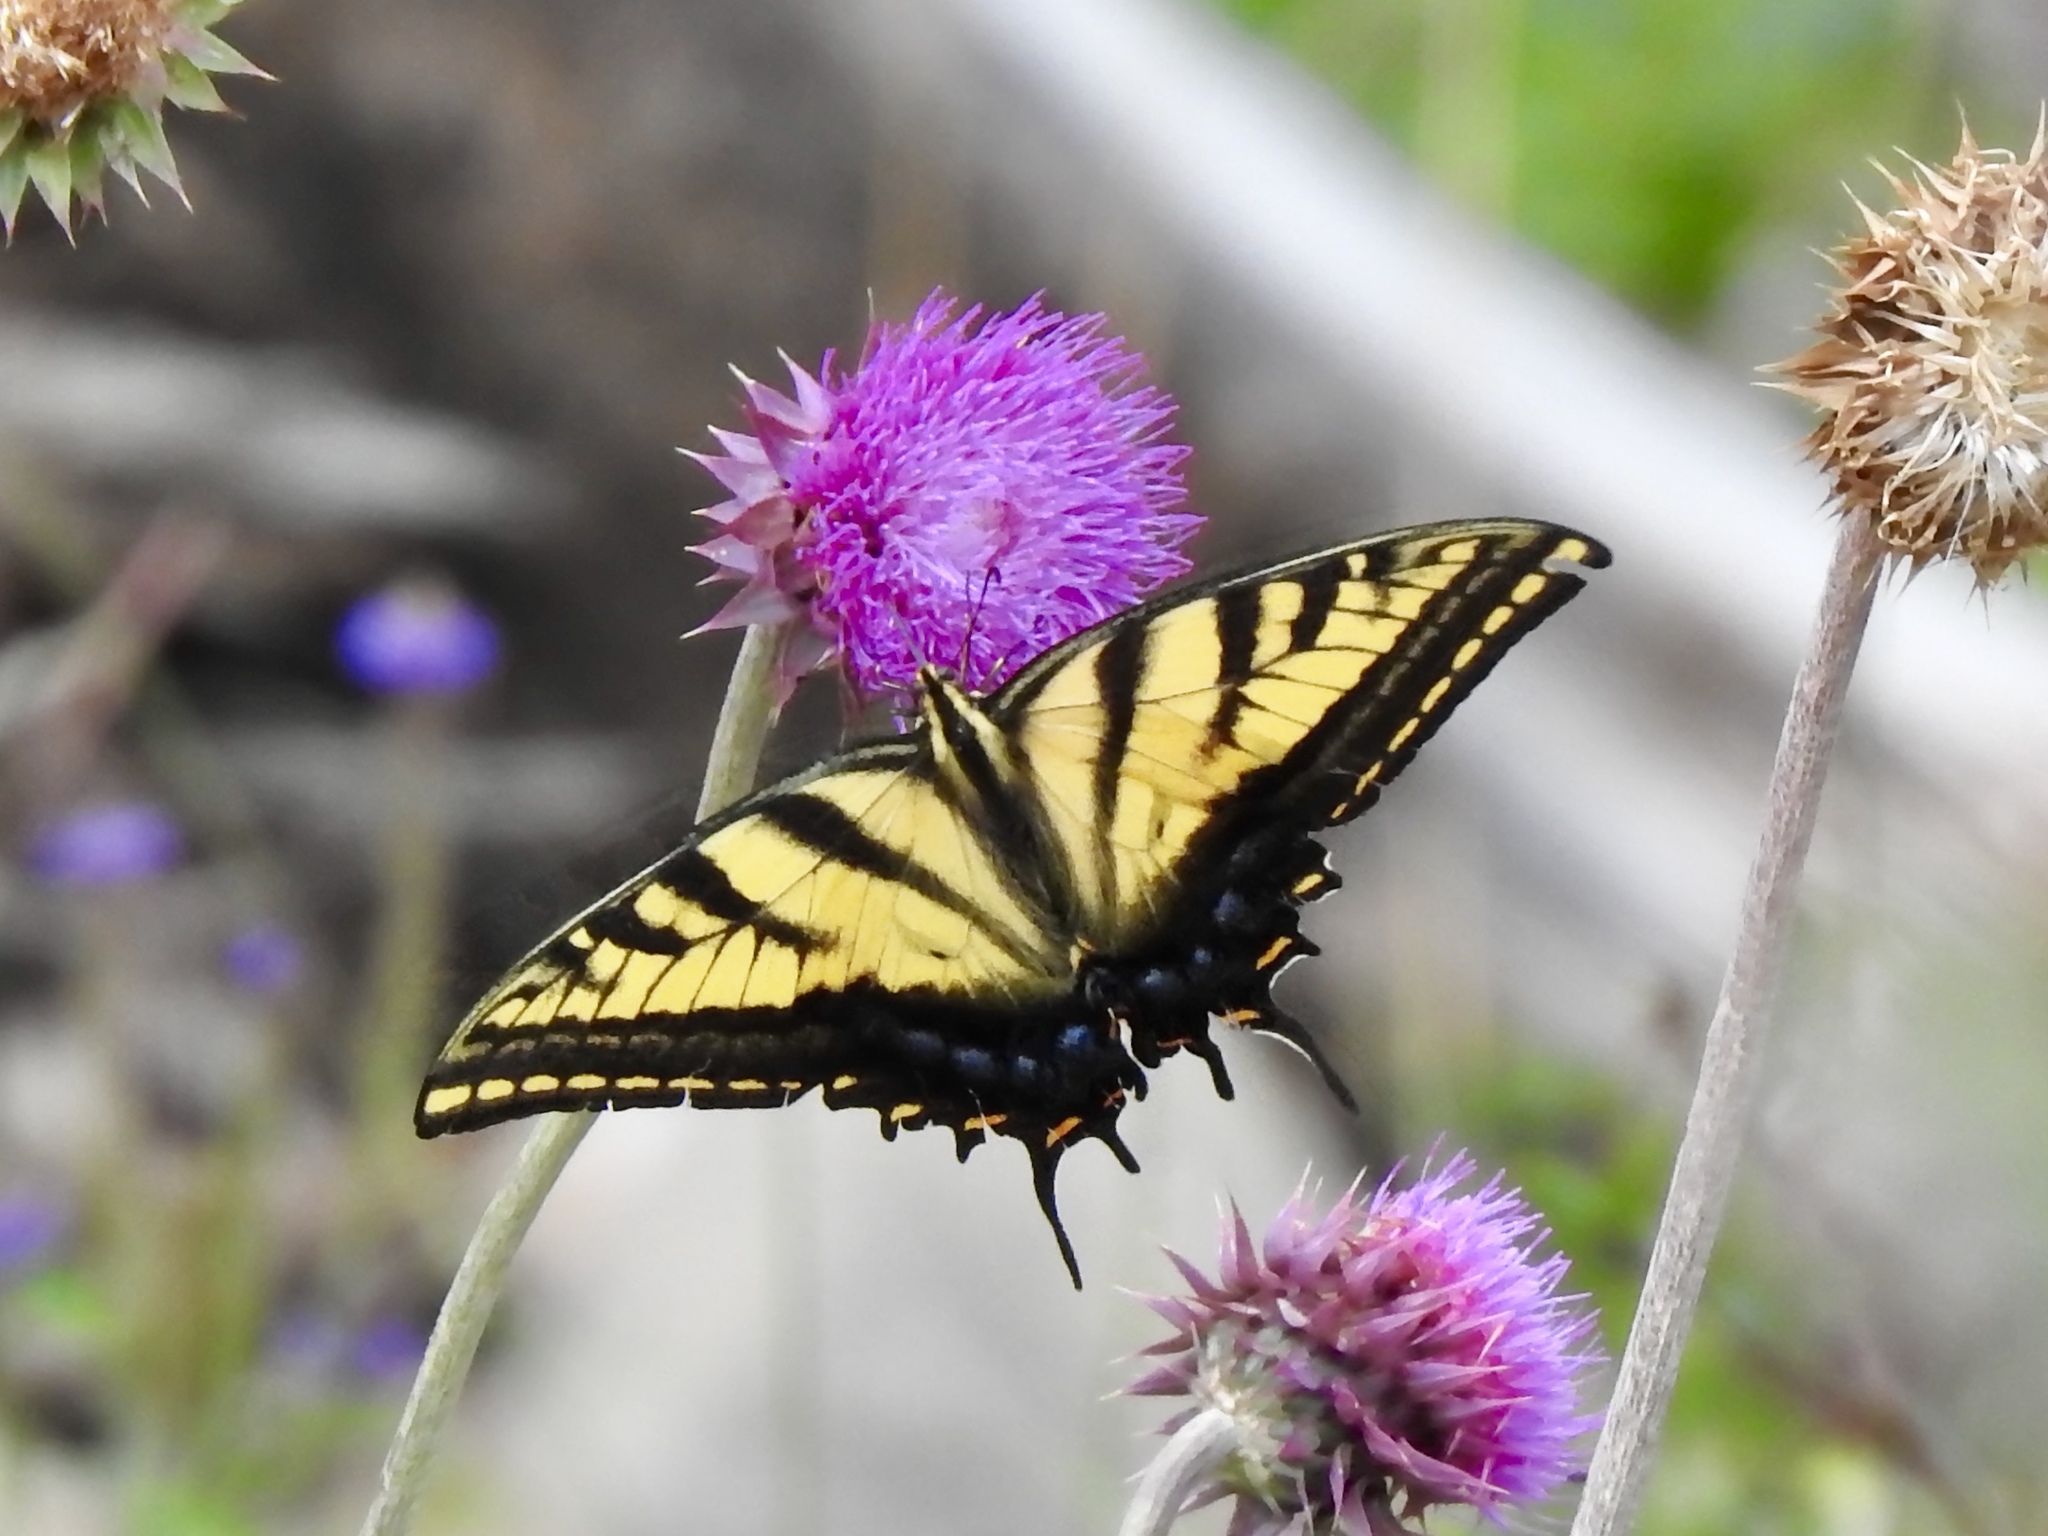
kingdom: Animalia
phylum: Arthropoda
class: Insecta
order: Lepidoptera
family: Papilionidae
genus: Papilio
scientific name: Papilio multicaudata
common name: Two-tailed tiger swallowtail
